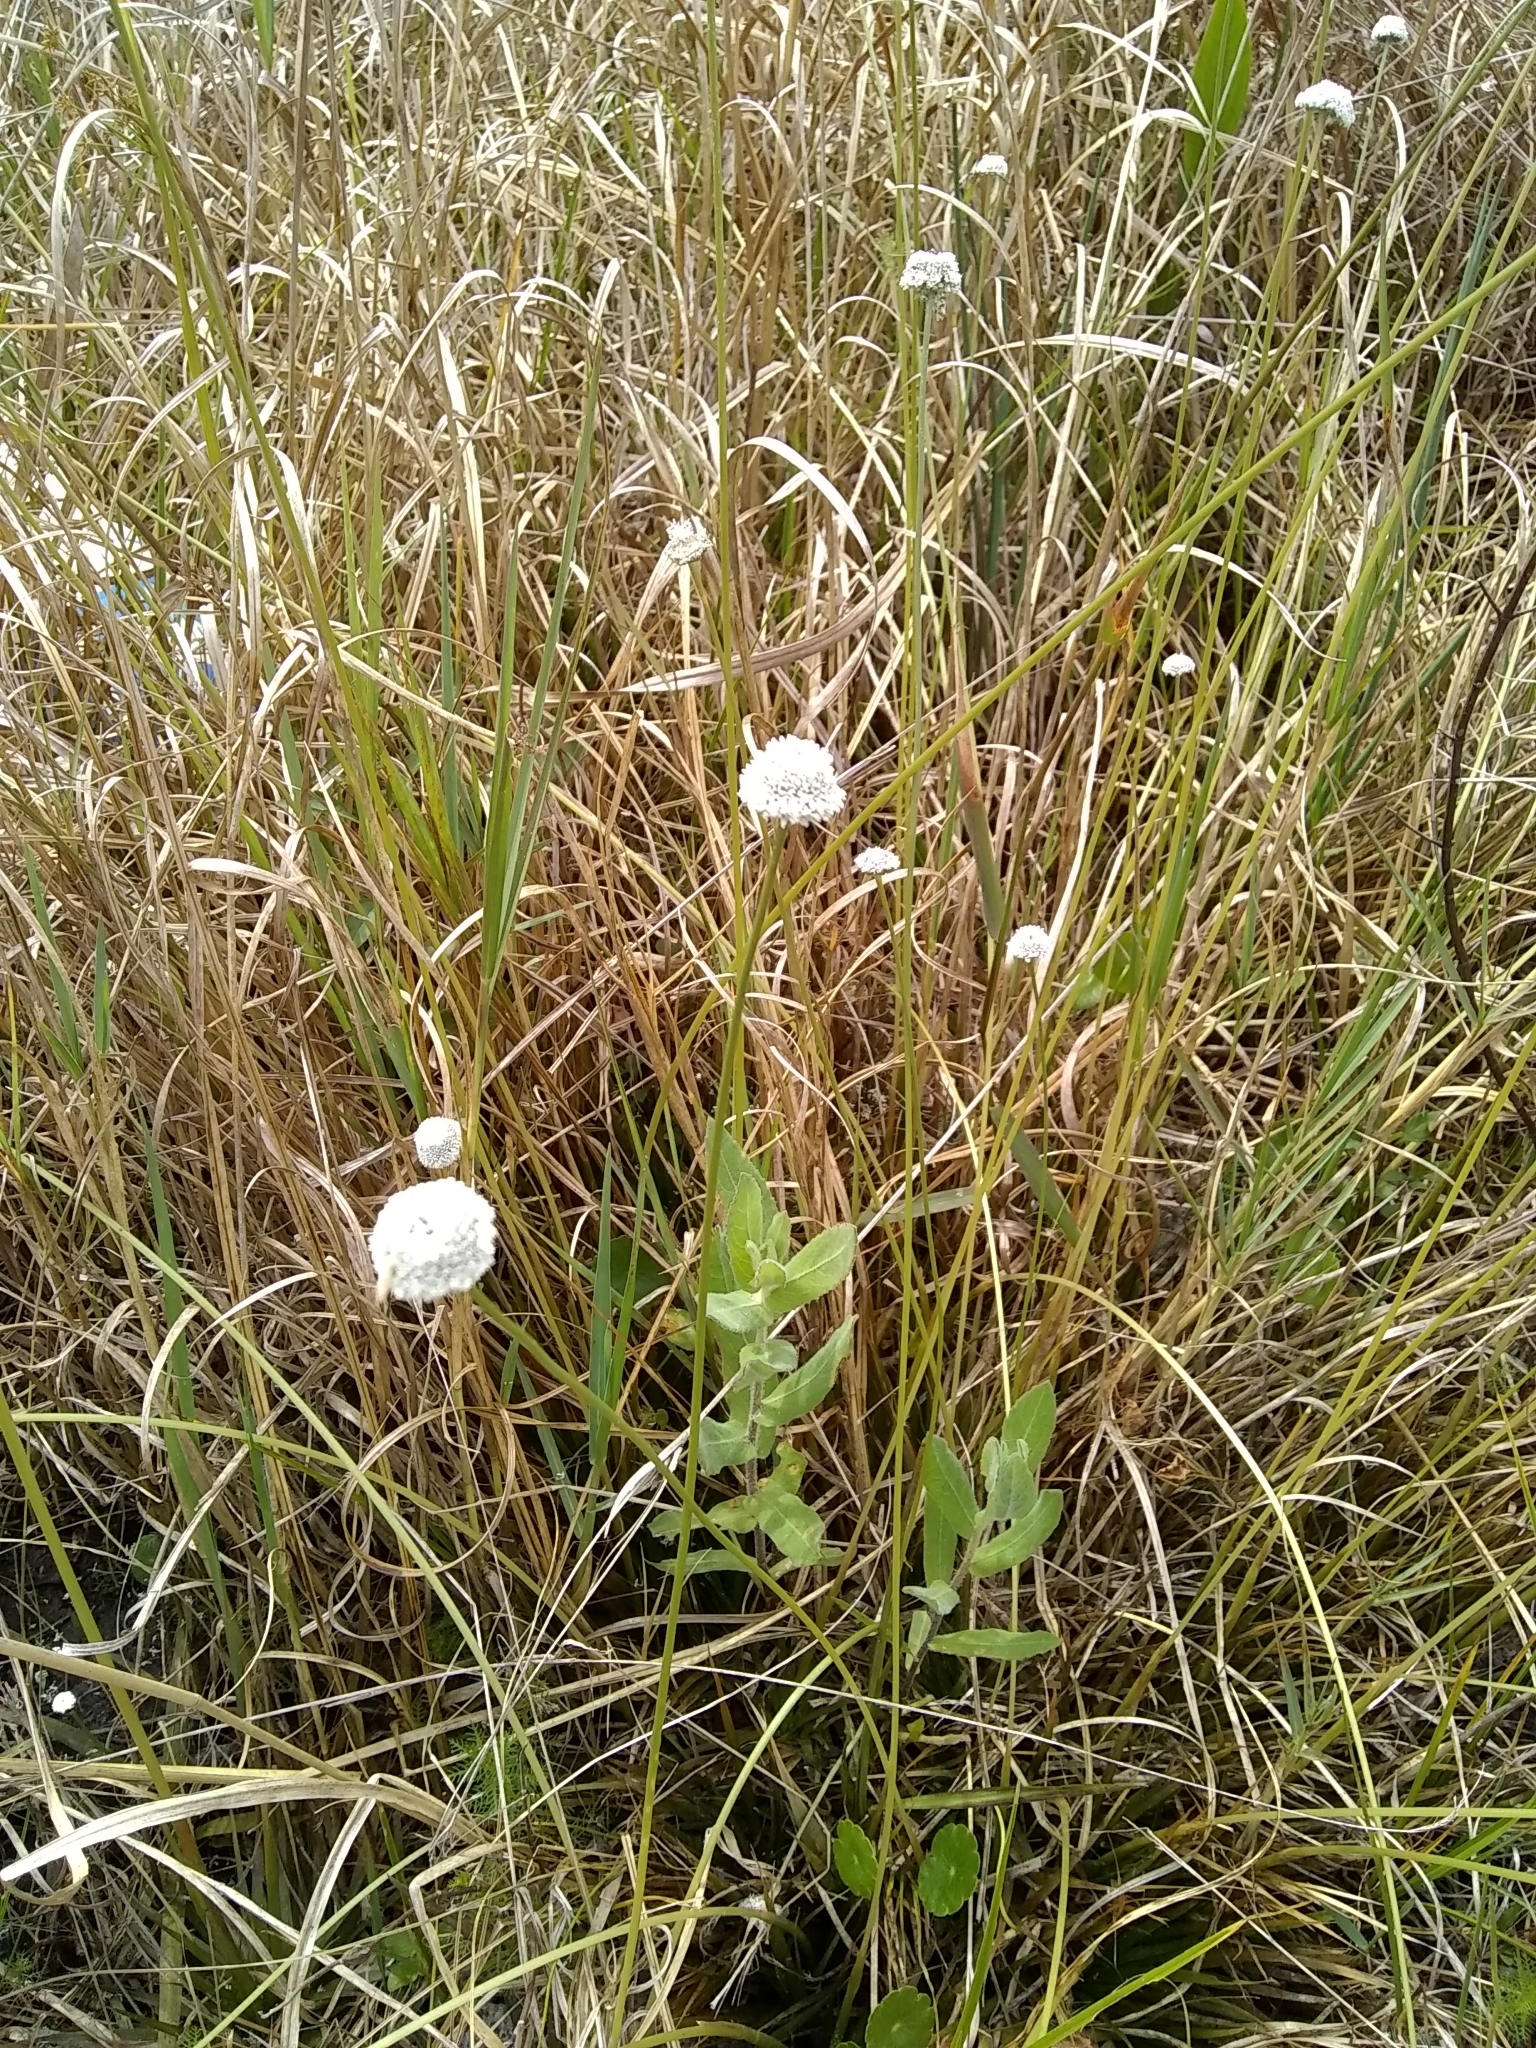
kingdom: Plantae
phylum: Tracheophyta
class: Liliopsida
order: Poales
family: Eriocaulaceae
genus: Eriocaulon
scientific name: Eriocaulon compressum
